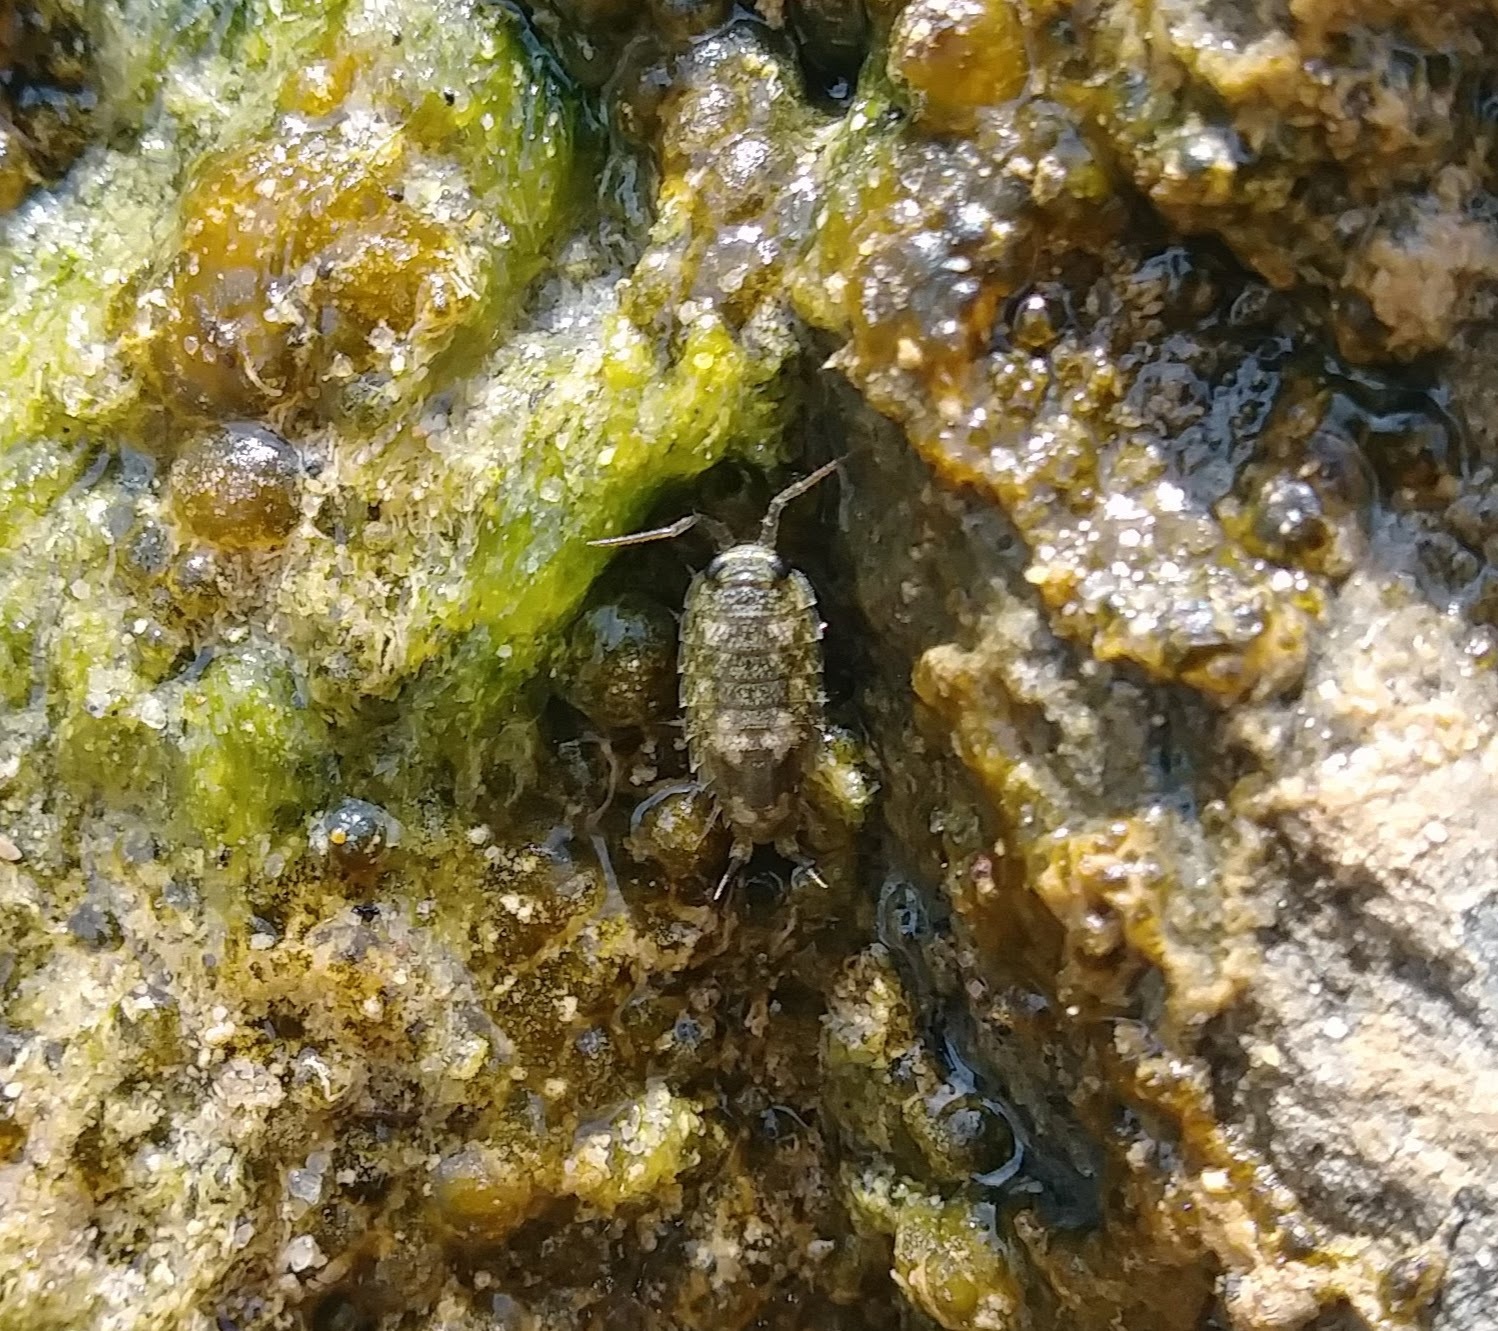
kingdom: Animalia
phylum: Arthropoda
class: Malacostraca
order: Isopoda
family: Ligiidae
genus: Ligia
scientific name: Ligia pallasii
